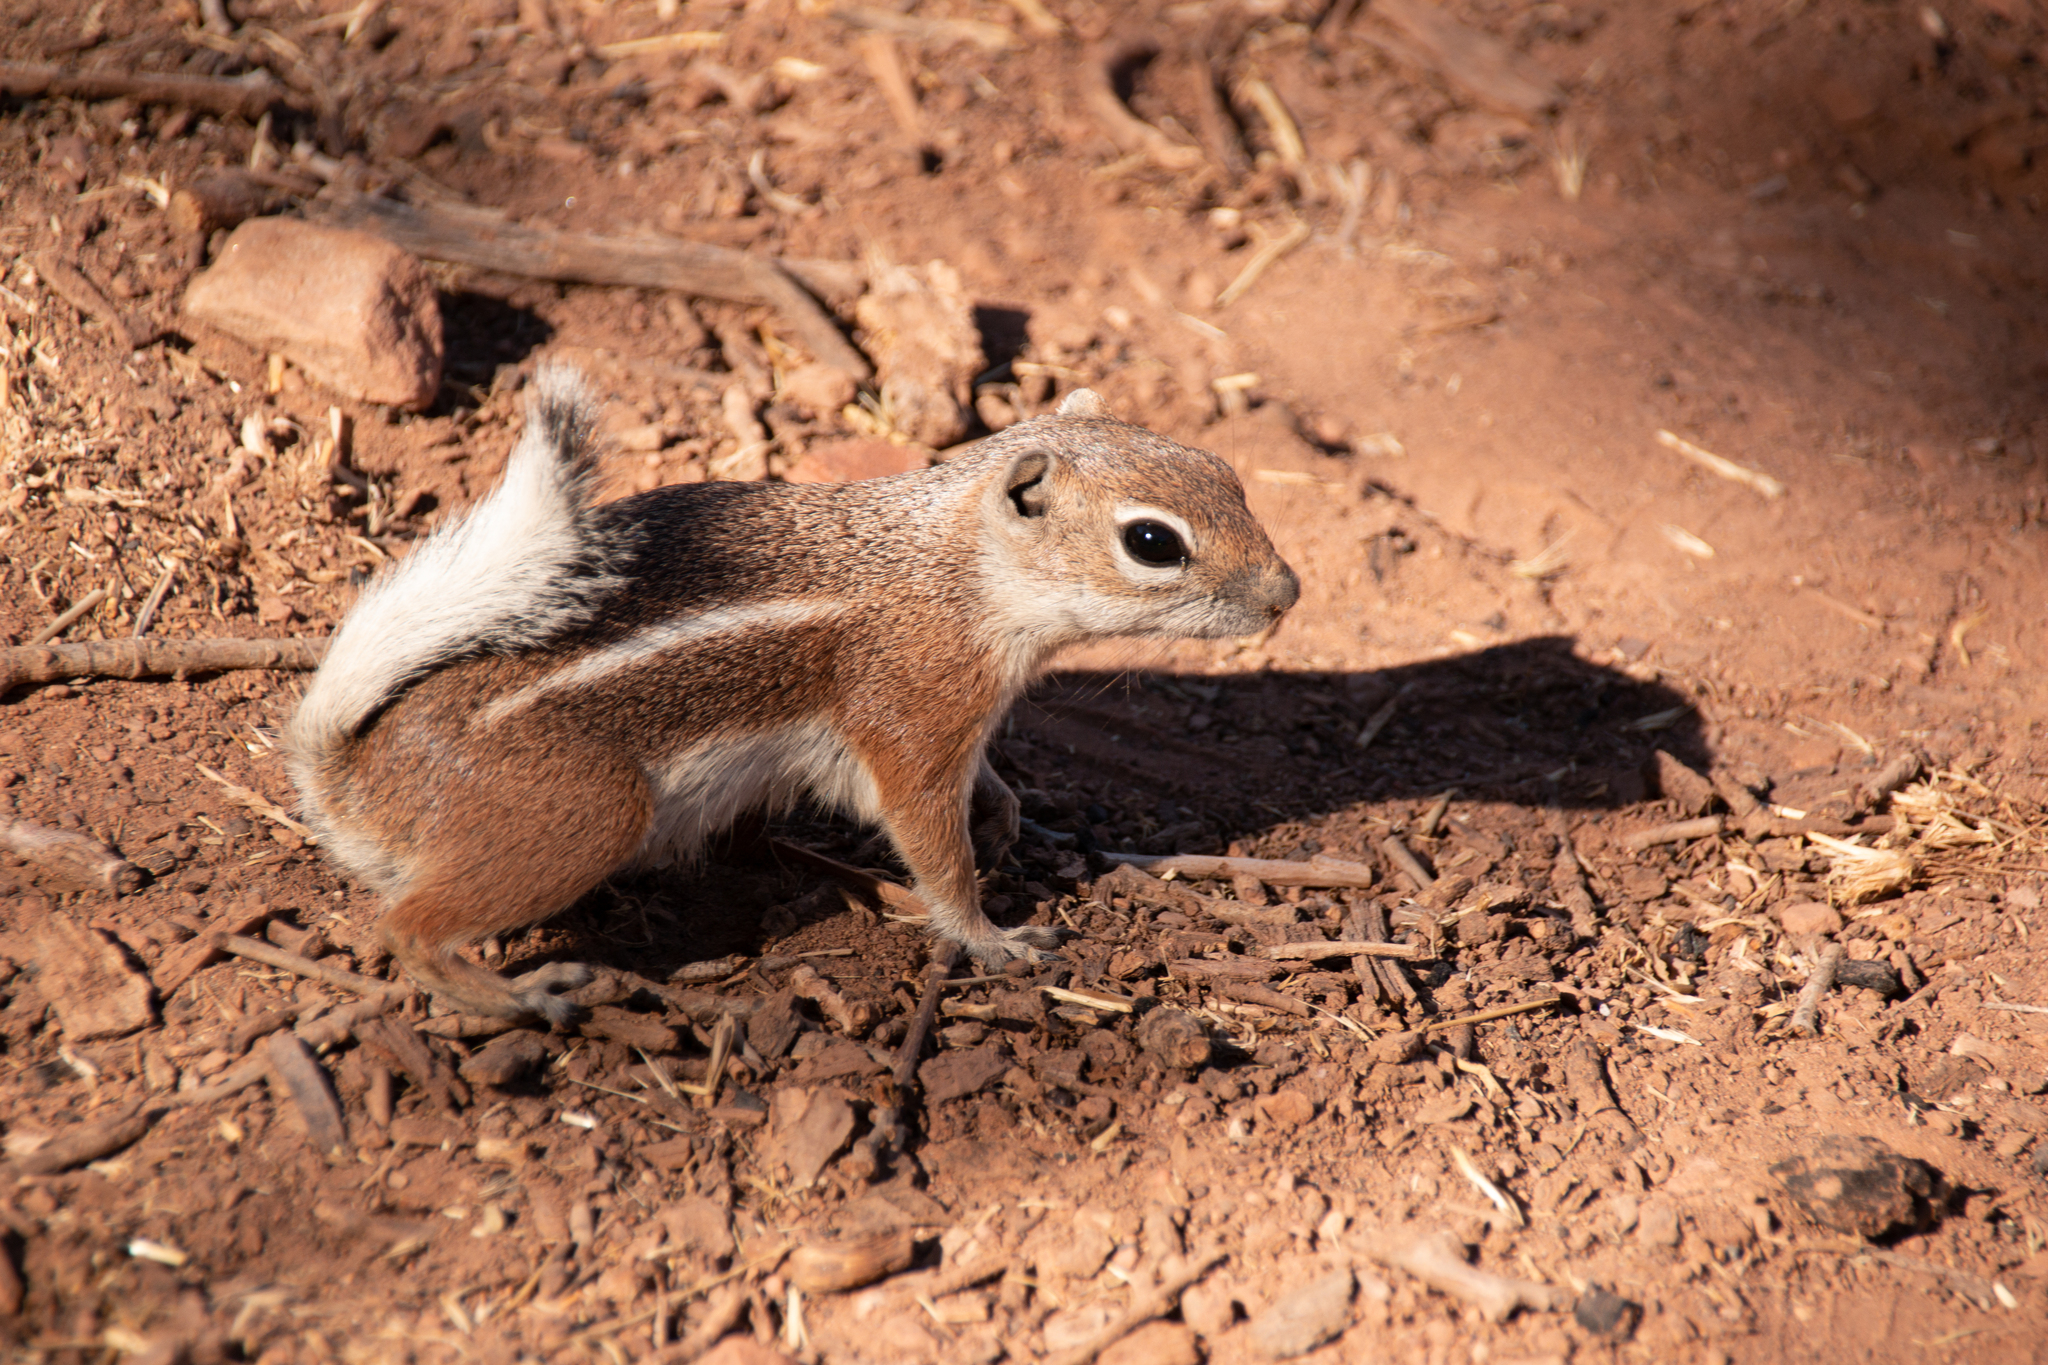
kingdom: Animalia
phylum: Chordata
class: Mammalia
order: Rodentia
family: Sciuridae
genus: Ammospermophilus
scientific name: Ammospermophilus leucurus
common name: White-tailed antelope squirrel
